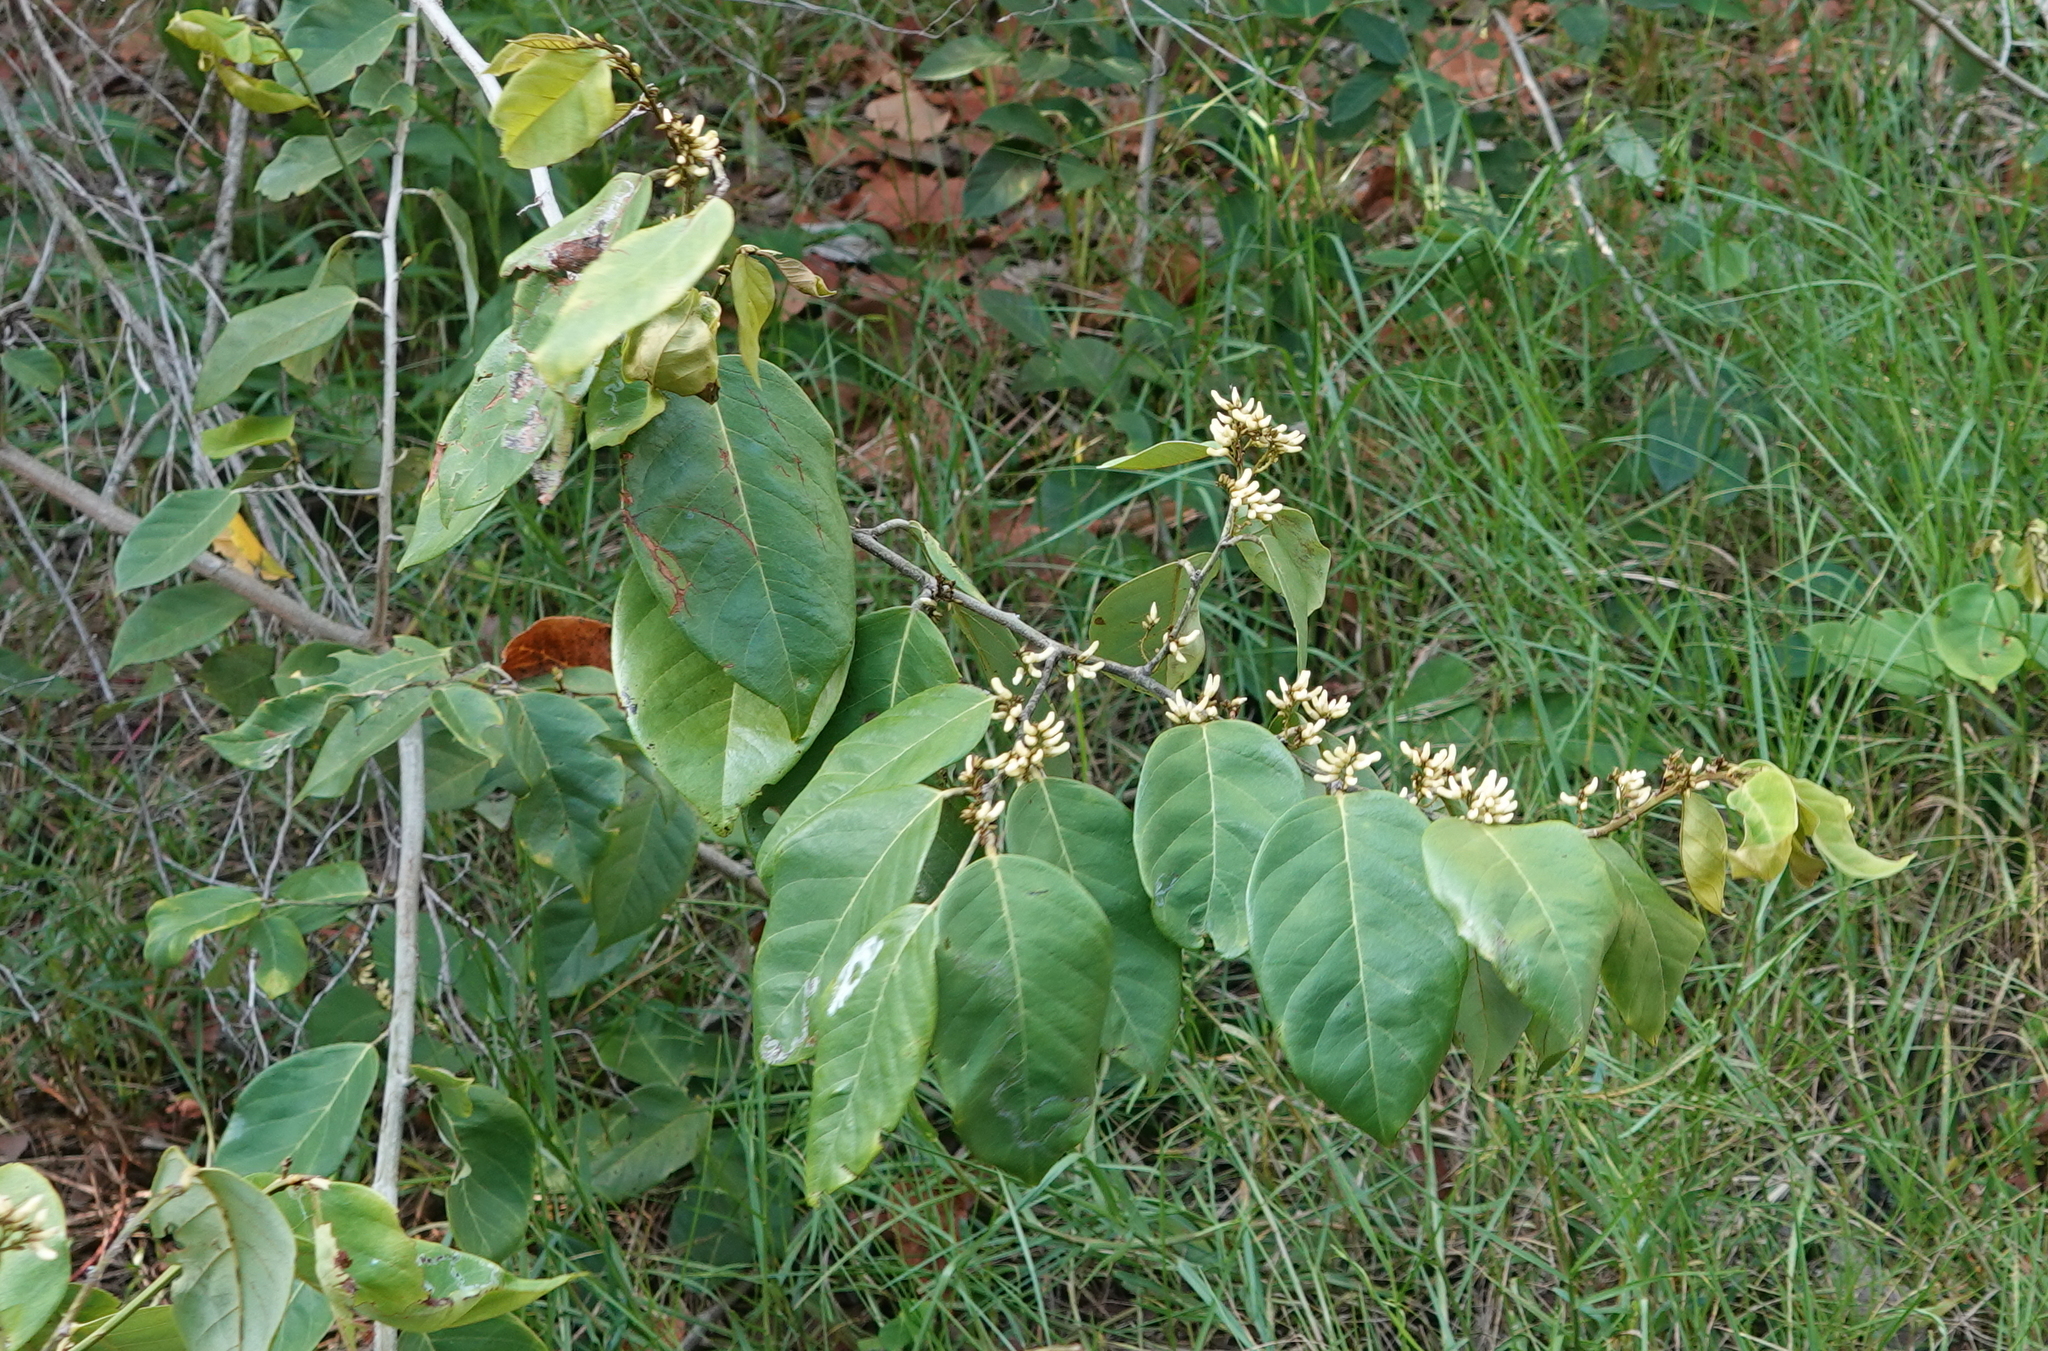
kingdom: Plantae
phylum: Tracheophyta
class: Magnoliopsida
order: Fabales
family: Fabaceae
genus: Dalbergia
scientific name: Dalbergia ecastaphyllum
